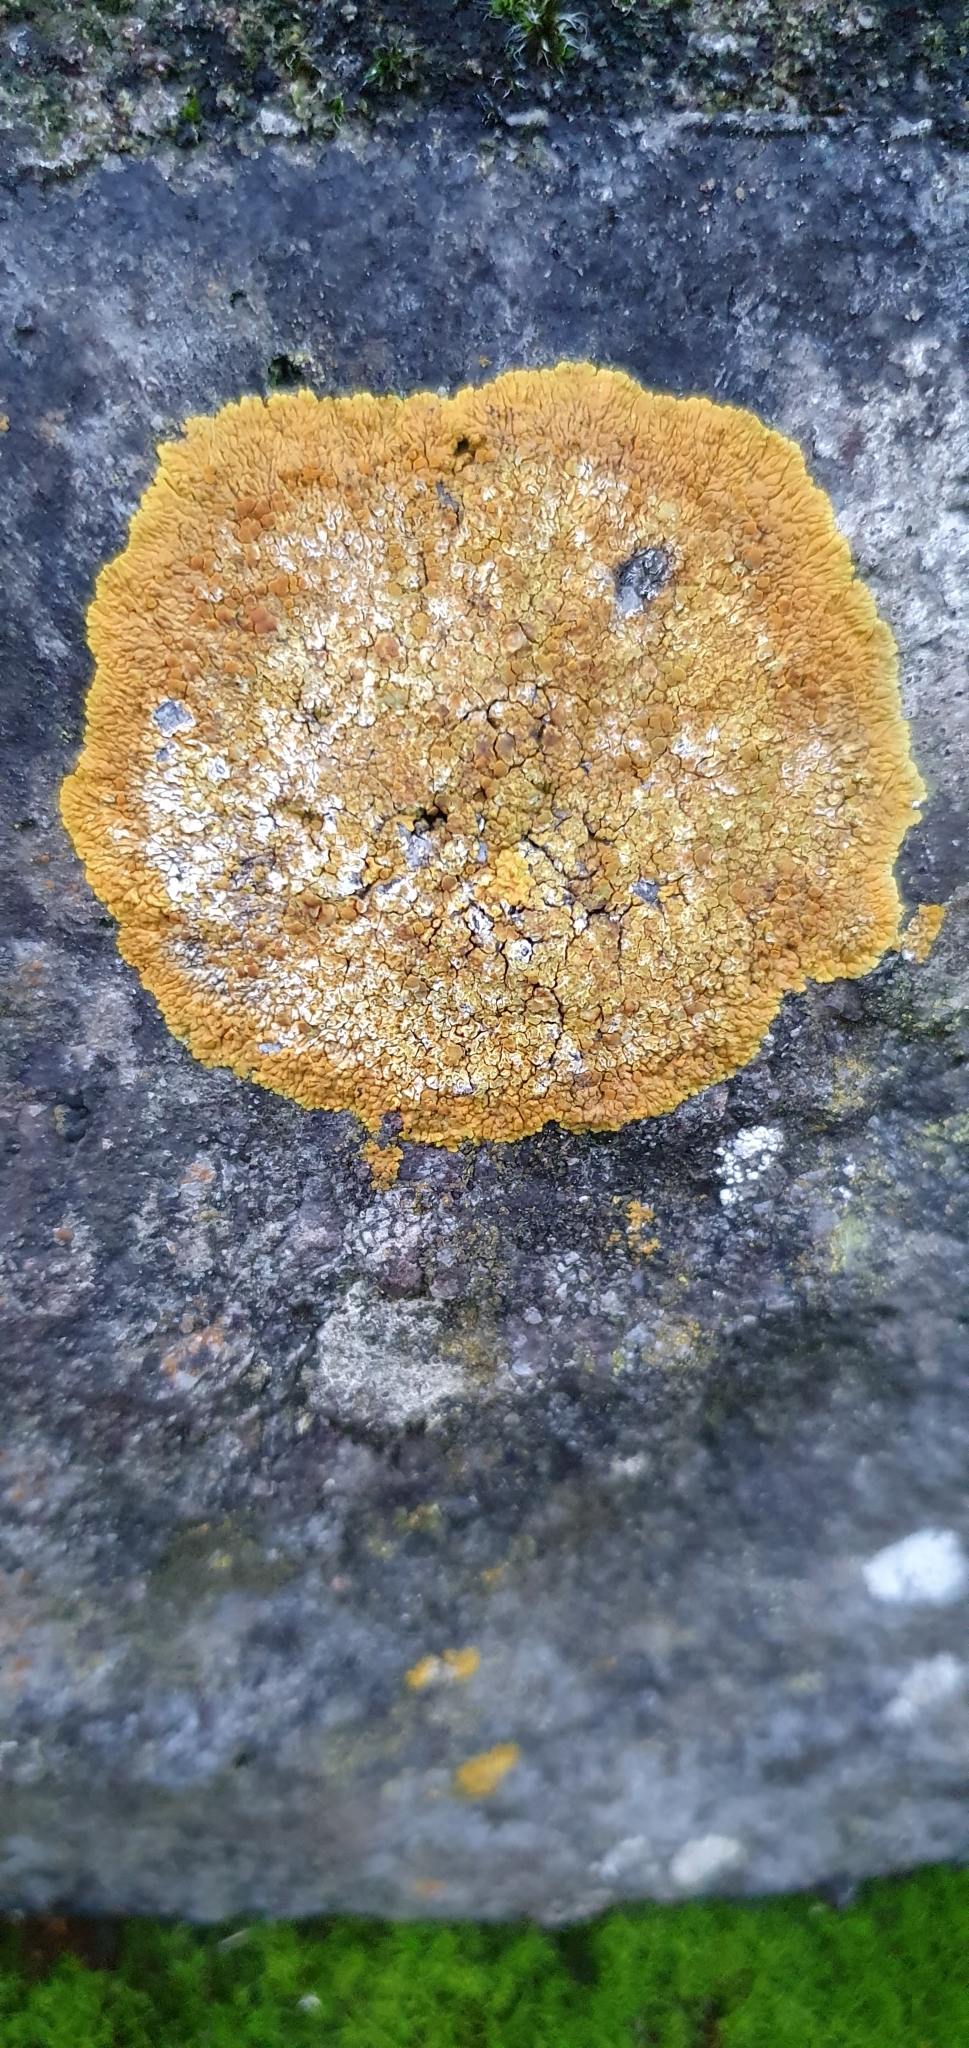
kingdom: Fungi
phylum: Ascomycota
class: Lecanoromycetes
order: Teloschistales
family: Teloschistaceae
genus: Variospora
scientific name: Variospora flavescens
